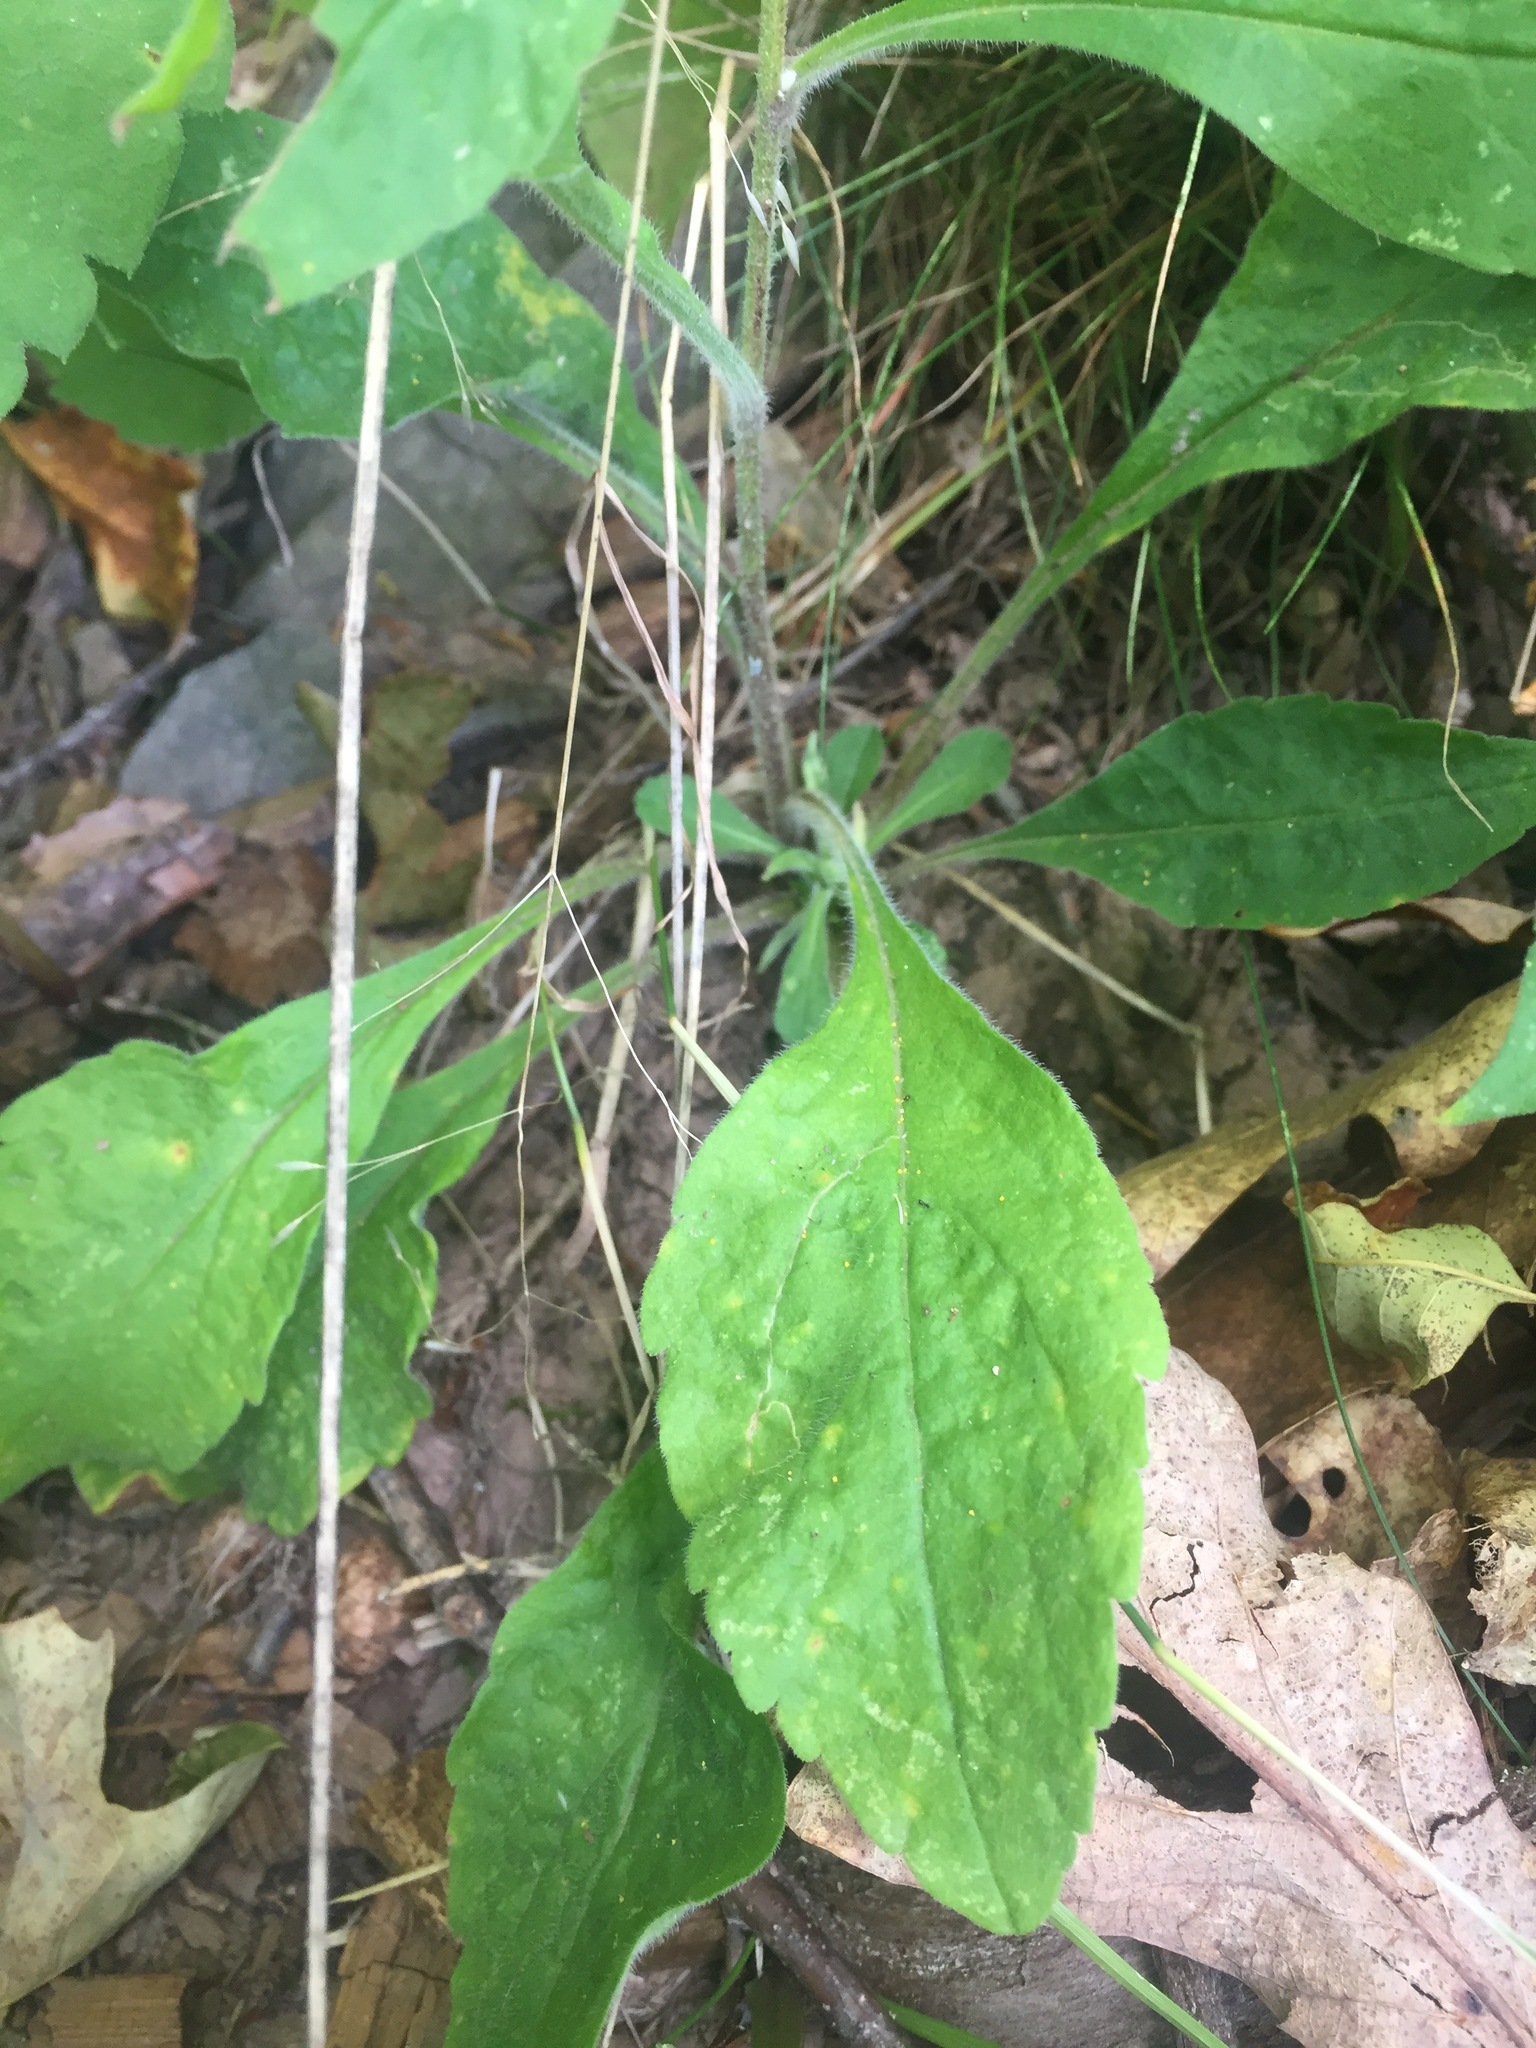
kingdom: Plantae
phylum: Tracheophyta
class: Magnoliopsida
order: Asterales
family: Asteraceae
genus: Solidago
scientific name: Solidago bicolor
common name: Silverrod
